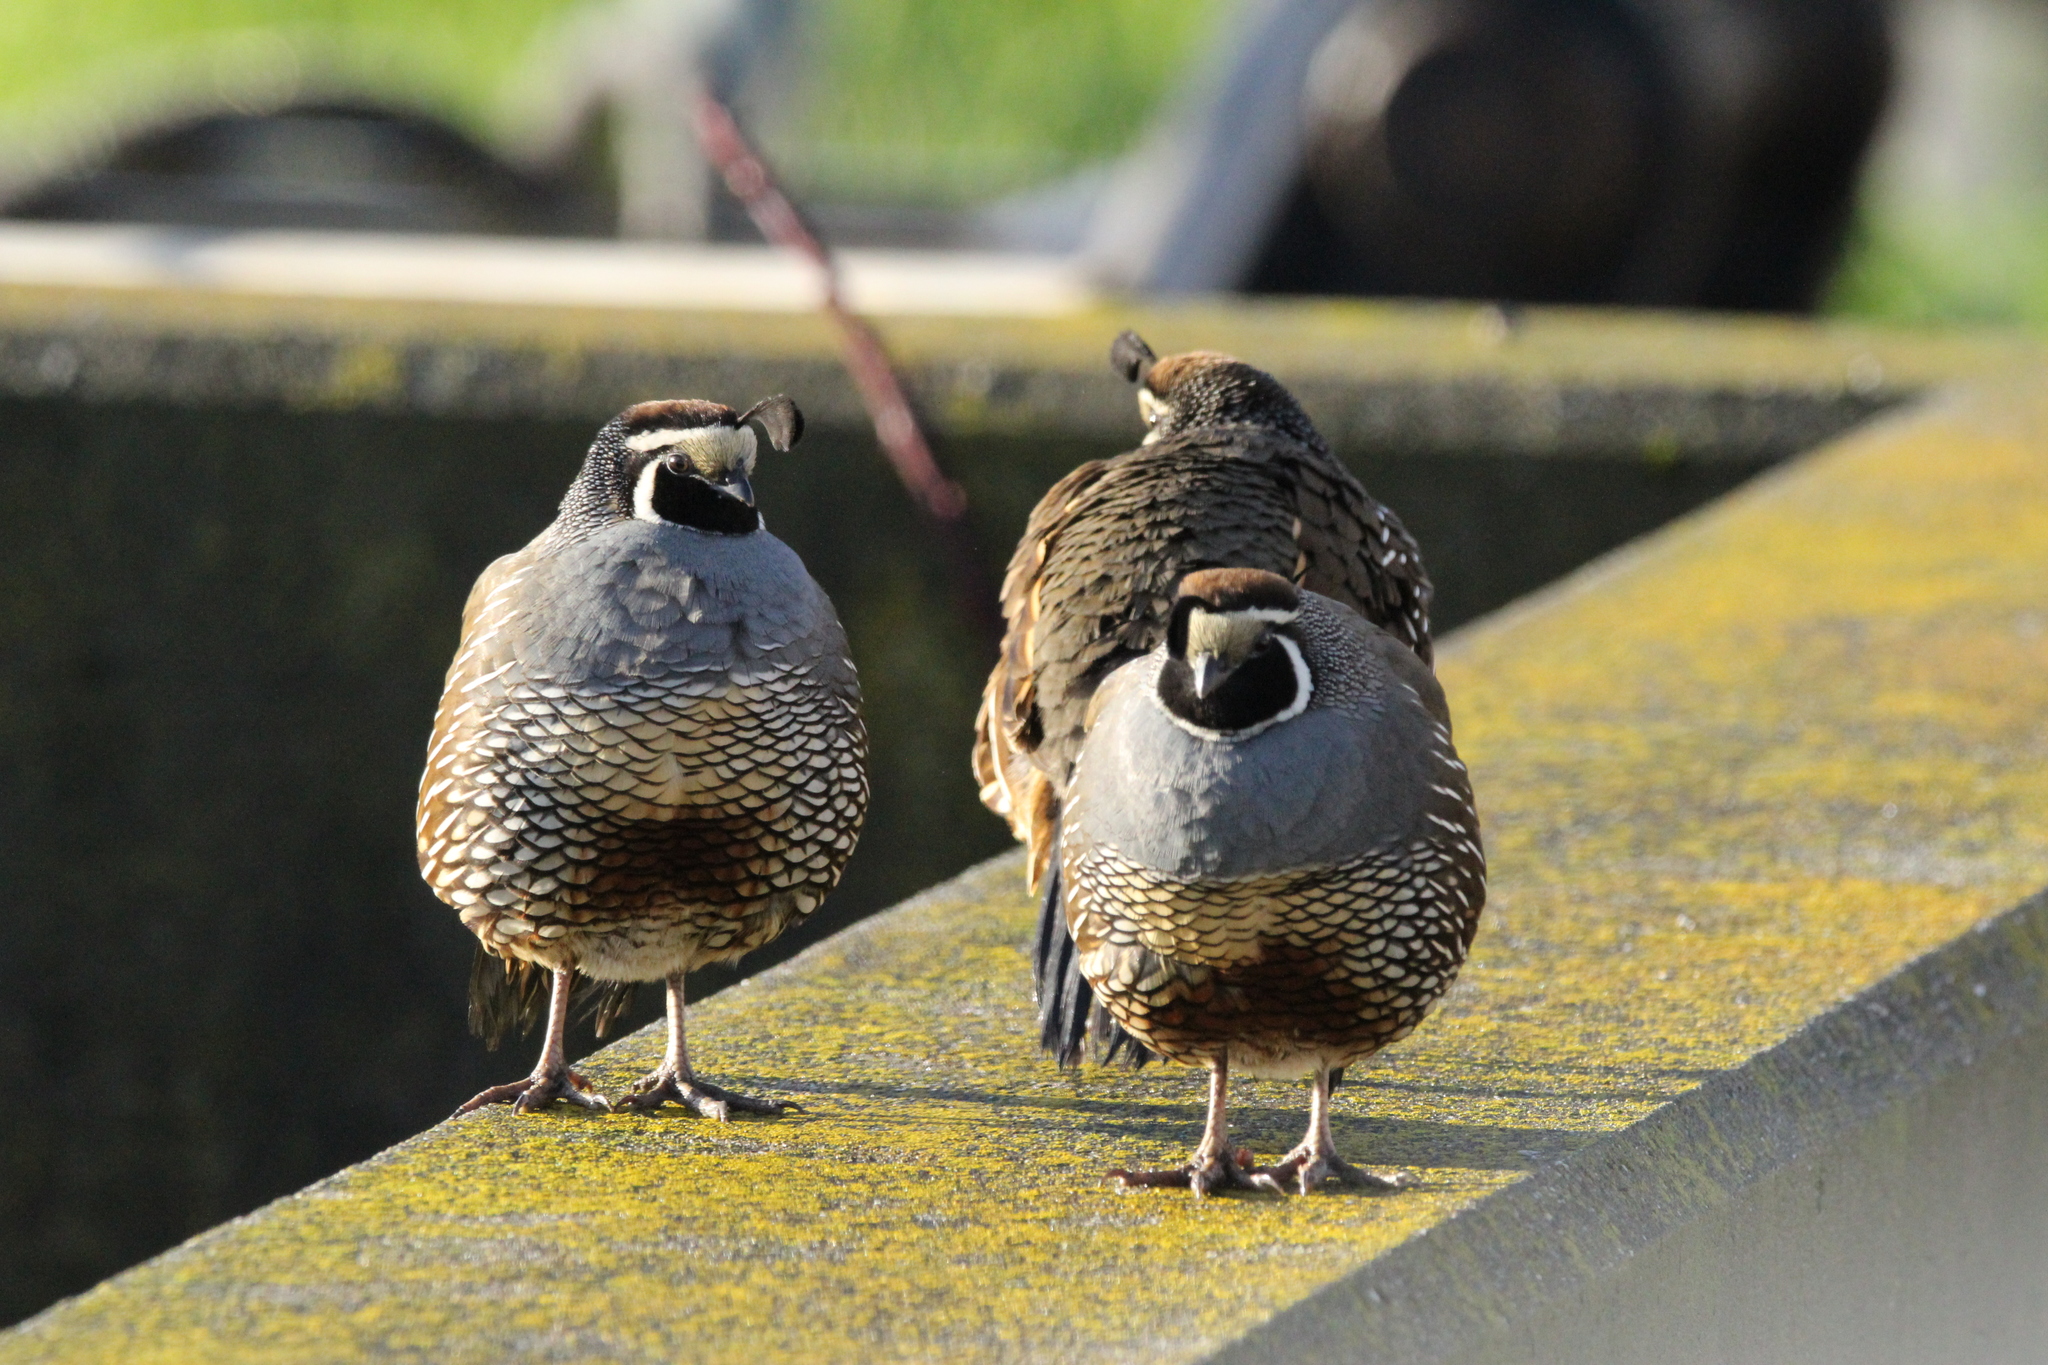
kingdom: Animalia
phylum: Chordata
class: Aves
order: Galliformes
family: Odontophoridae
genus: Callipepla
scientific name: Callipepla californica
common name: California quail
